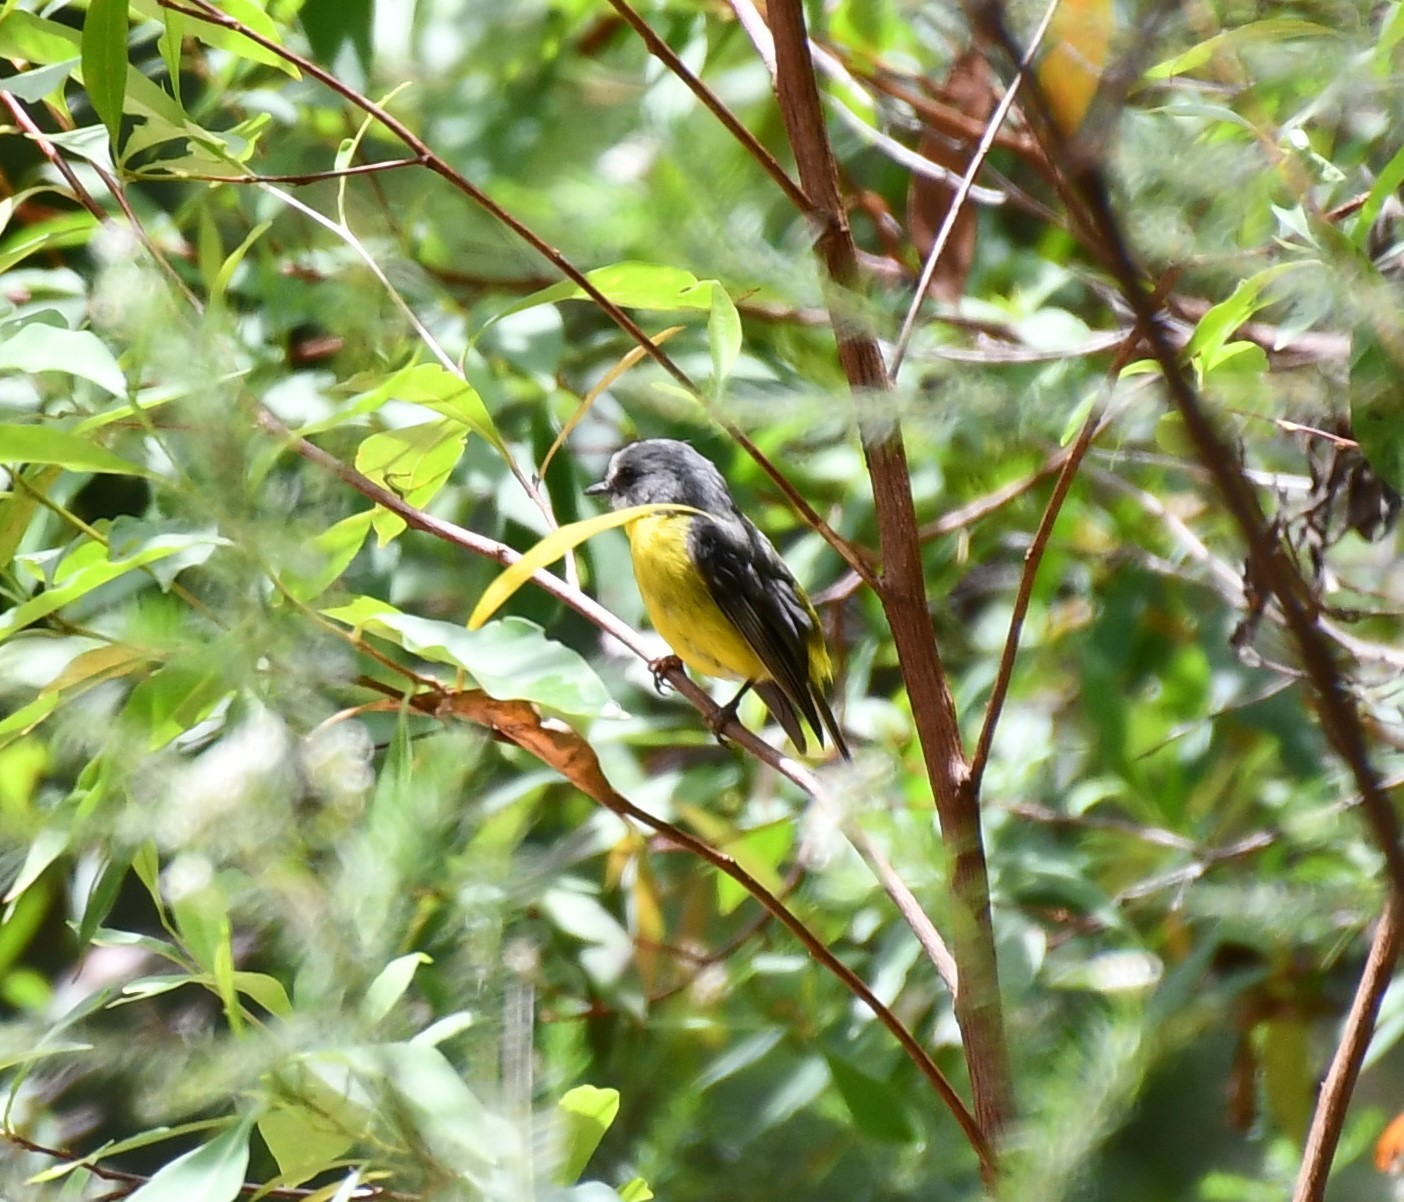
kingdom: Animalia
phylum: Chordata
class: Aves
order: Passeriformes
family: Petroicidae
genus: Eopsaltria
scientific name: Eopsaltria australis
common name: Eastern yellow robin
